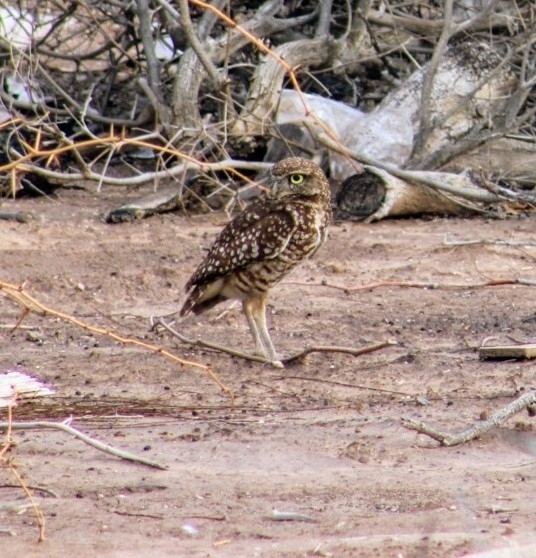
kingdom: Animalia
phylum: Chordata
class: Aves
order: Strigiformes
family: Strigidae
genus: Athene
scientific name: Athene cunicularia
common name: Burrowing owl
